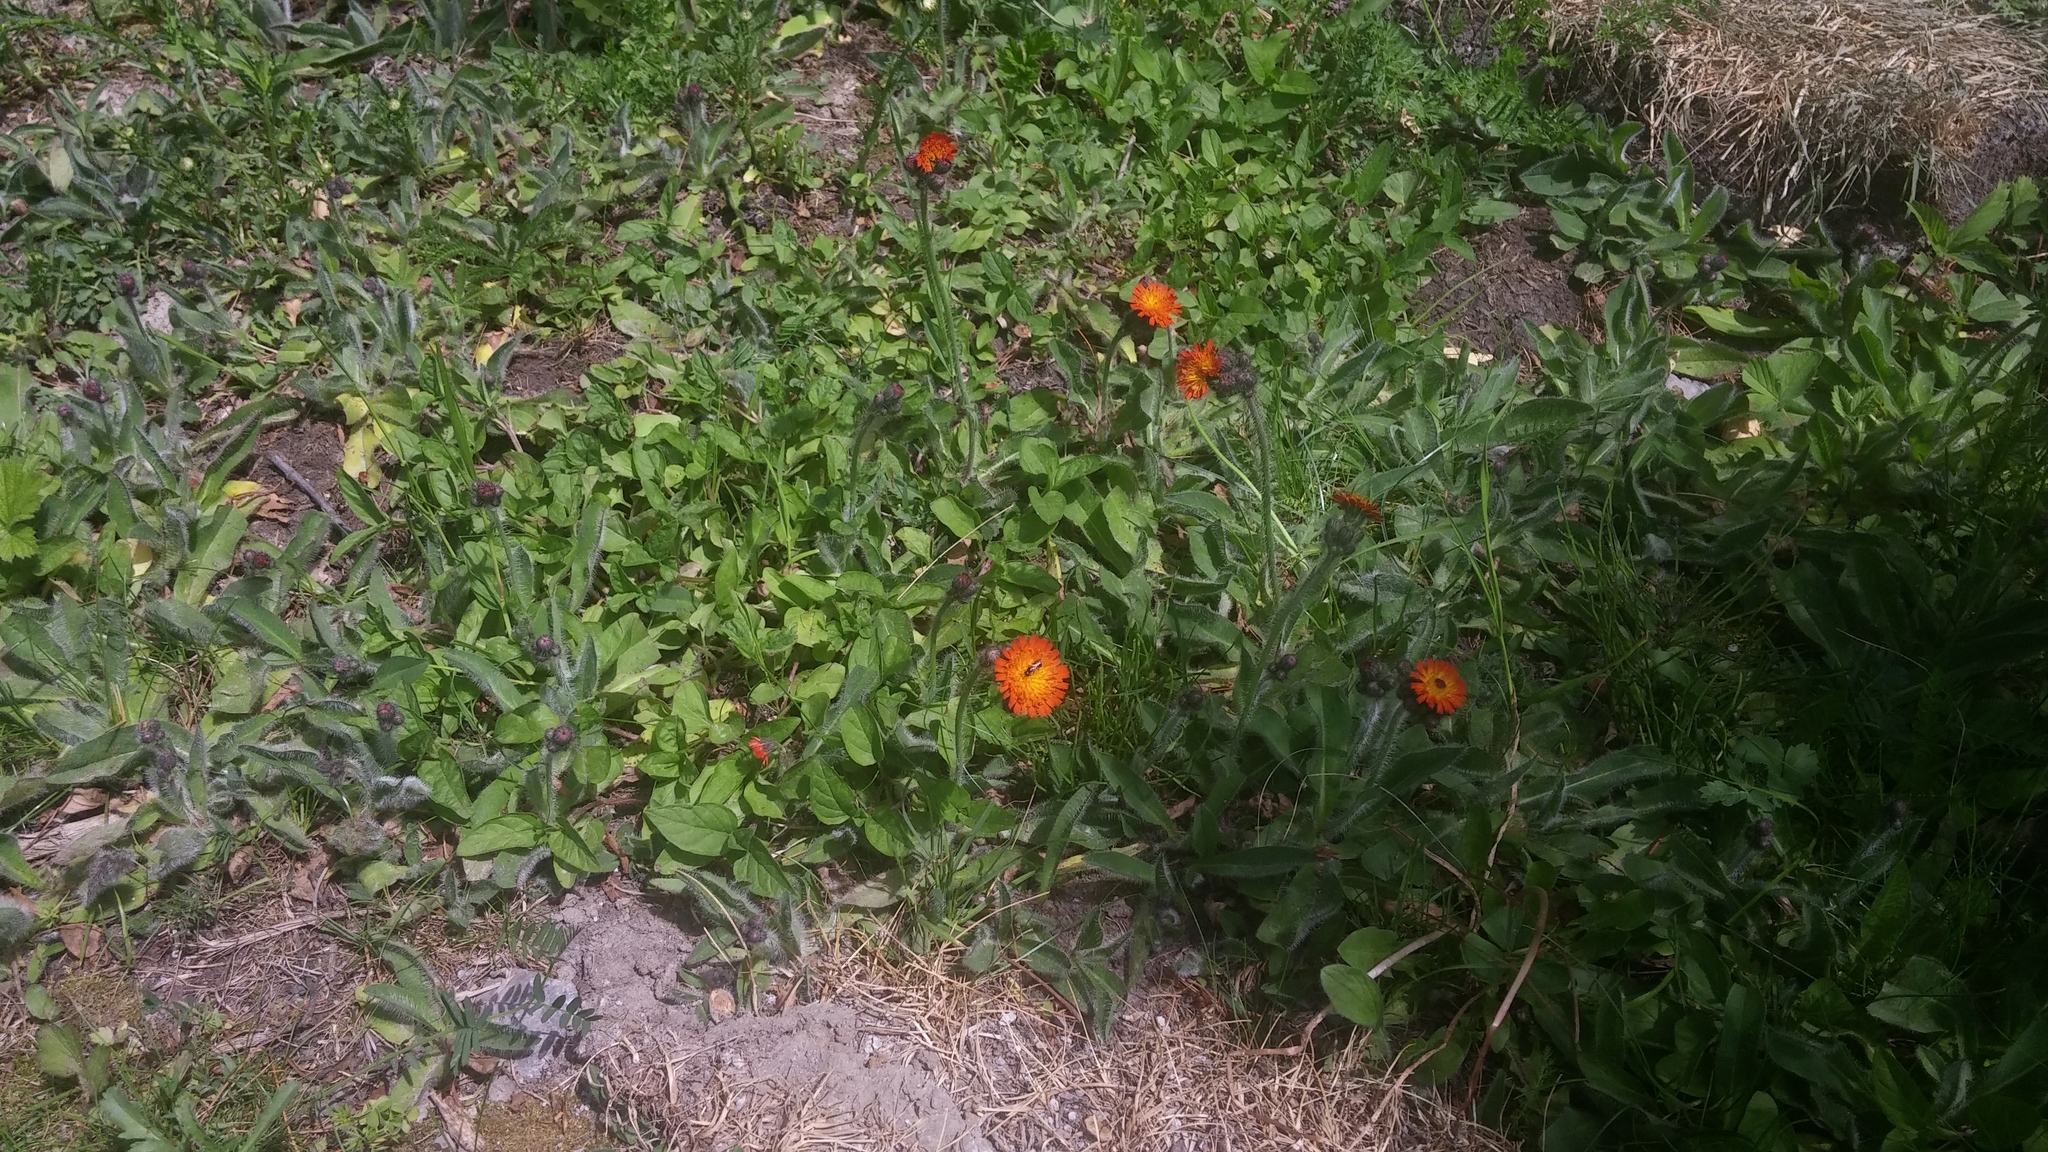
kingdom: Plantae
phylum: Tracheophyta
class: Magnoliopsida
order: Asterales
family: Asteraceae
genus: Pilosella
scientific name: Pilosella aurantiaca
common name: Fox-and-cubs
